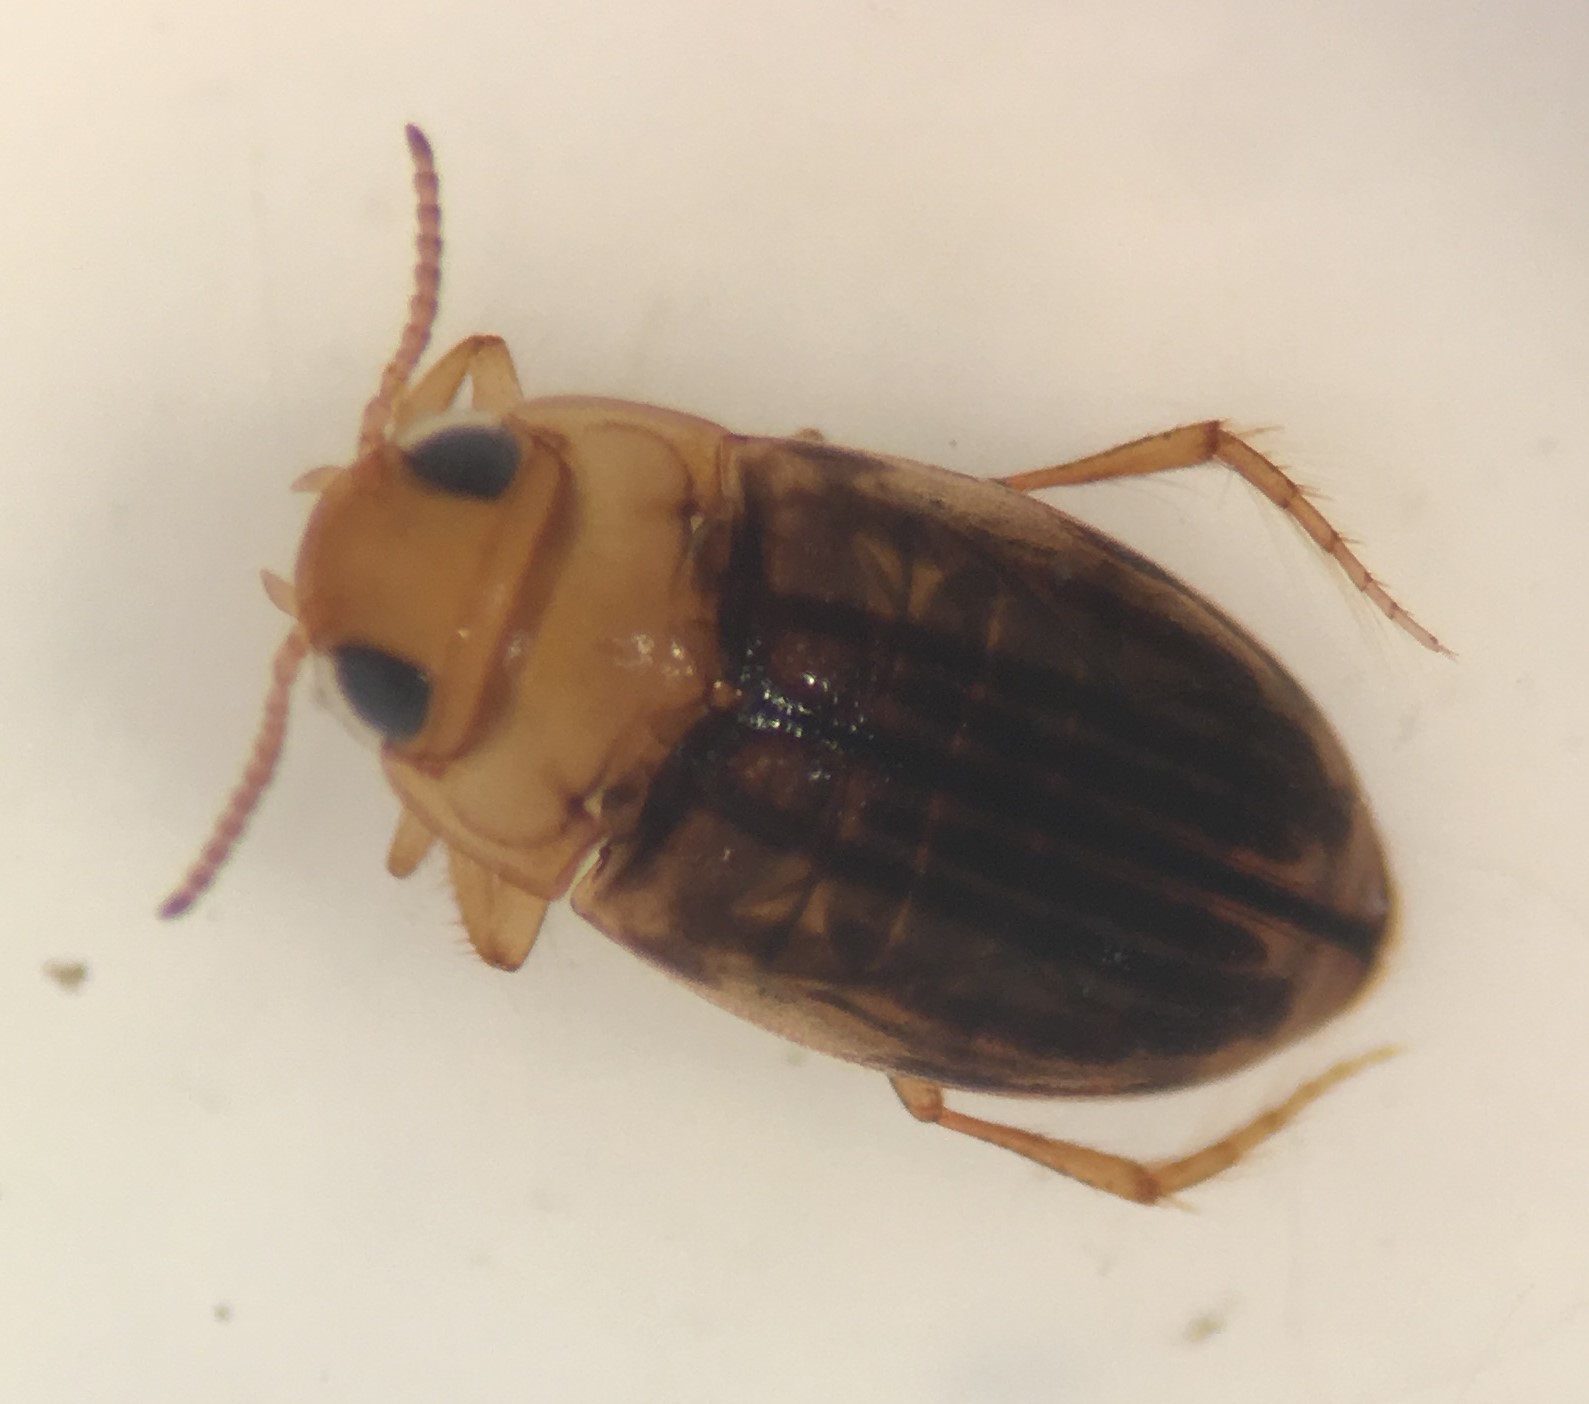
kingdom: Animalia
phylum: Arthropoda
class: Insecta
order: Coleoptera
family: Dytiscidae
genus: Neobidessus
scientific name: Neobidessus pullus
